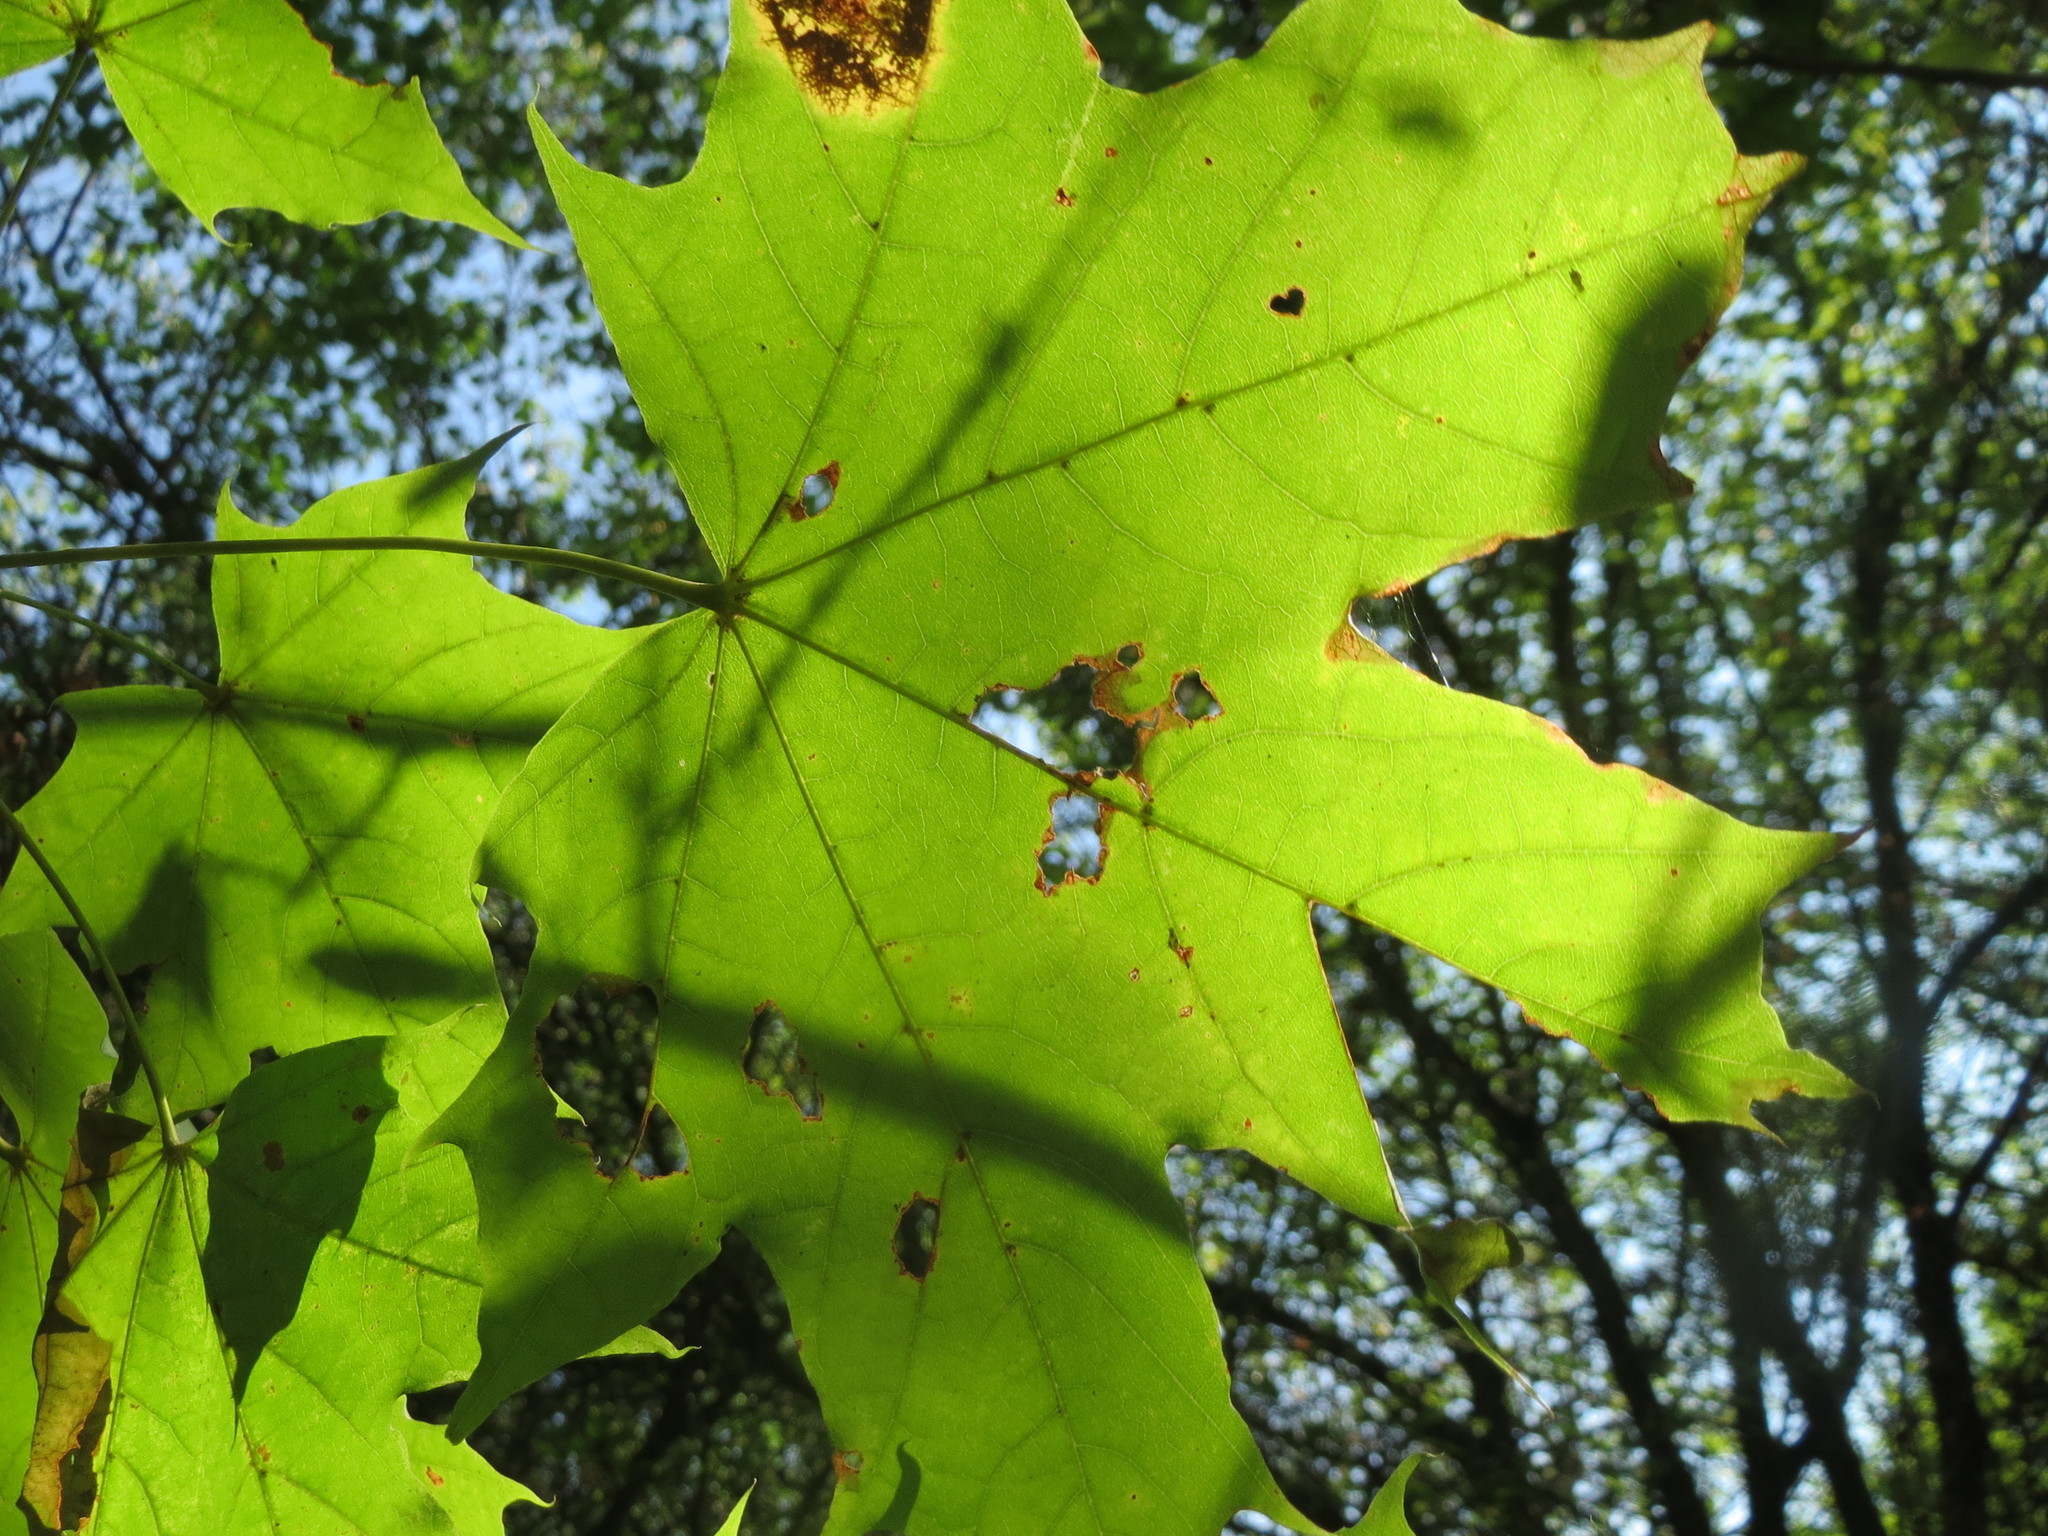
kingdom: Plantae
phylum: Tracheophyta
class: Magnoliopsida
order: Sapindales
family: Sapindaceae
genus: Acer
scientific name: Acer platanoides
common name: Norway maple
